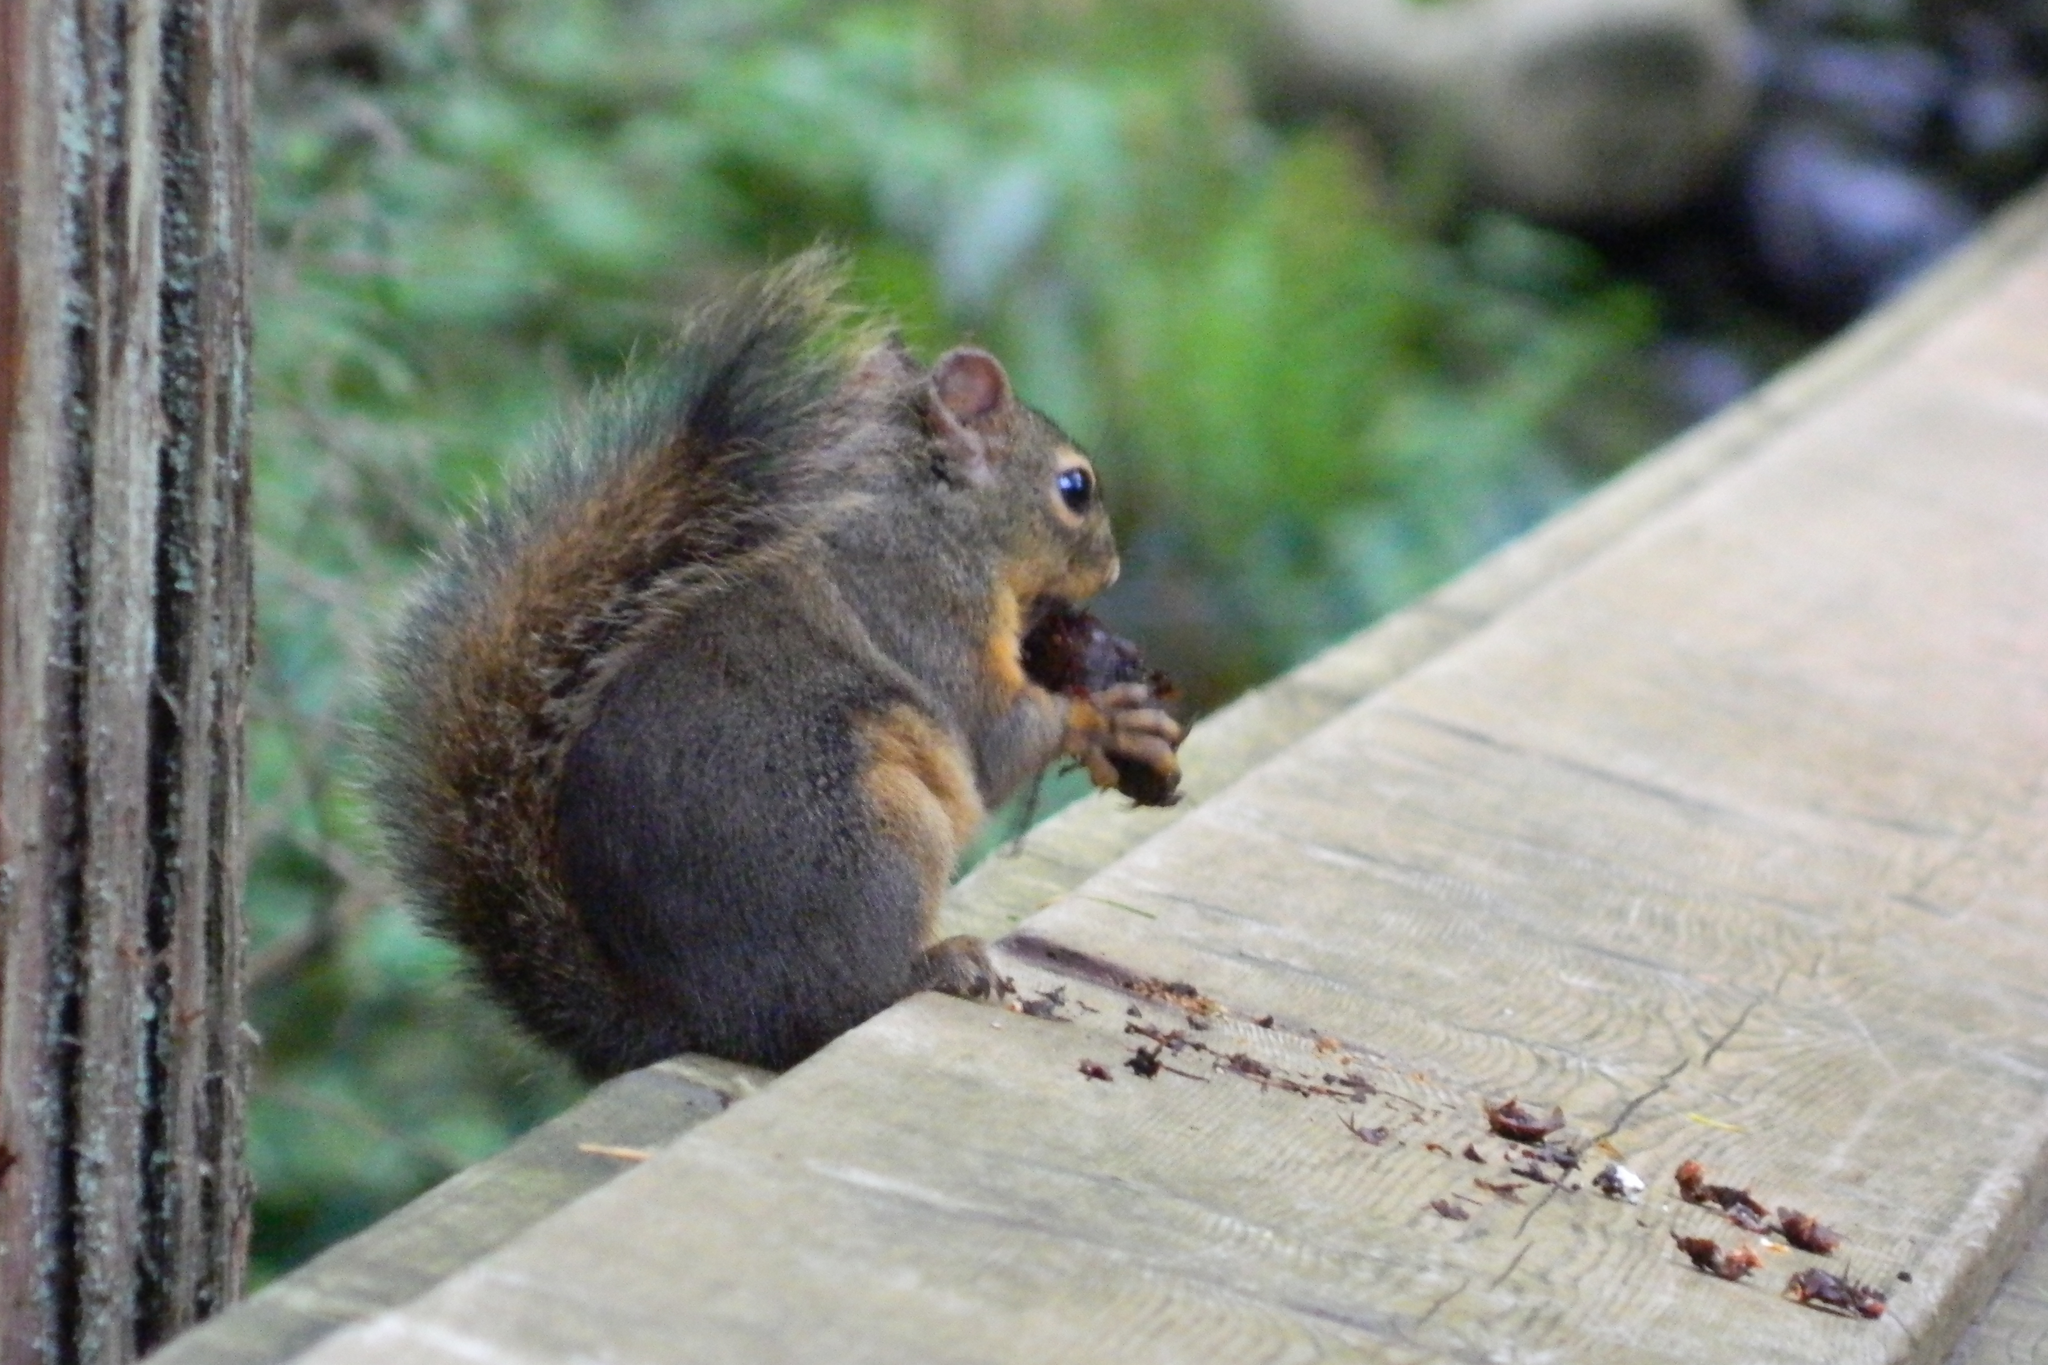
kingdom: Animalia
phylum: Chordata
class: Mammalia
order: Rodentia
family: Sciuridae
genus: Tamiasciurus
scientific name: Tamiasciurus douglasii
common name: Douglas's squirrel
